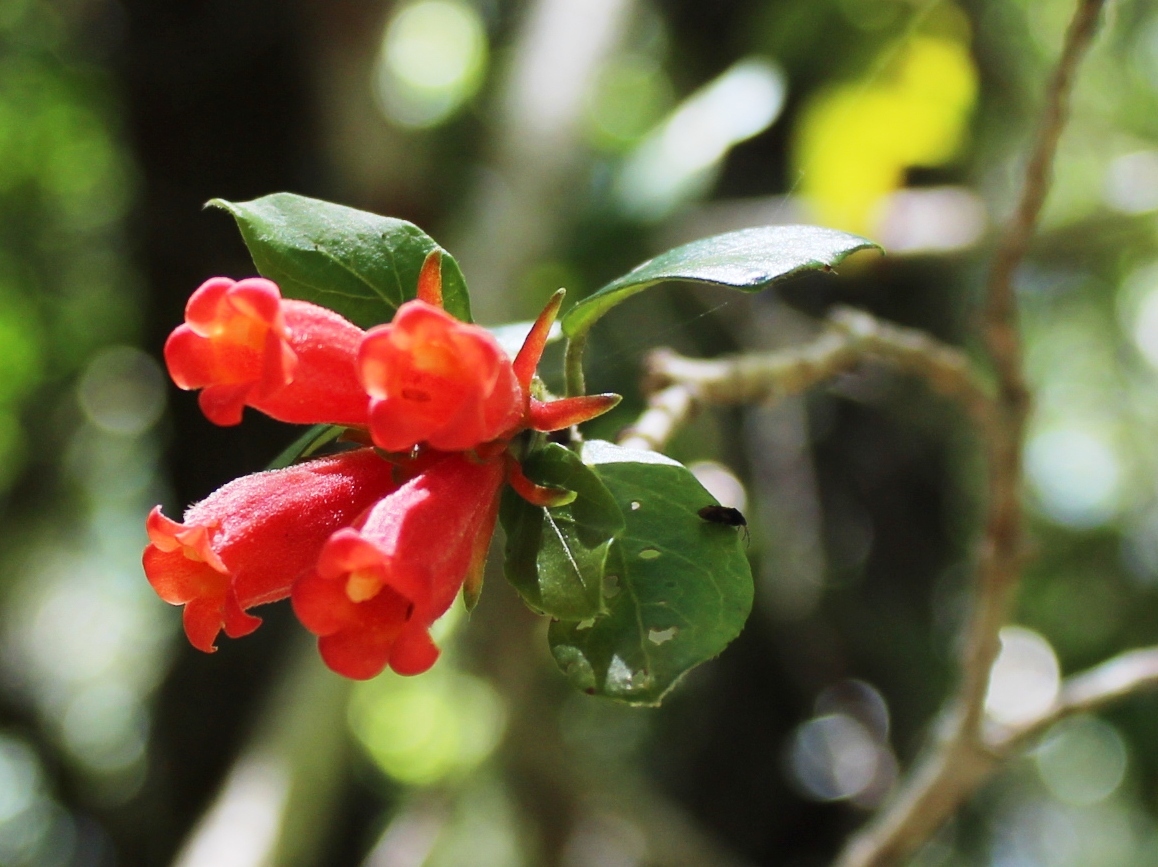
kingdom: Plantae
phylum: Tracheophyta
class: Magnoliopsida
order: Gentianales
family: Rubiaceae
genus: Burchellia
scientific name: Burchellia bubalina
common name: Wild pomegranate
